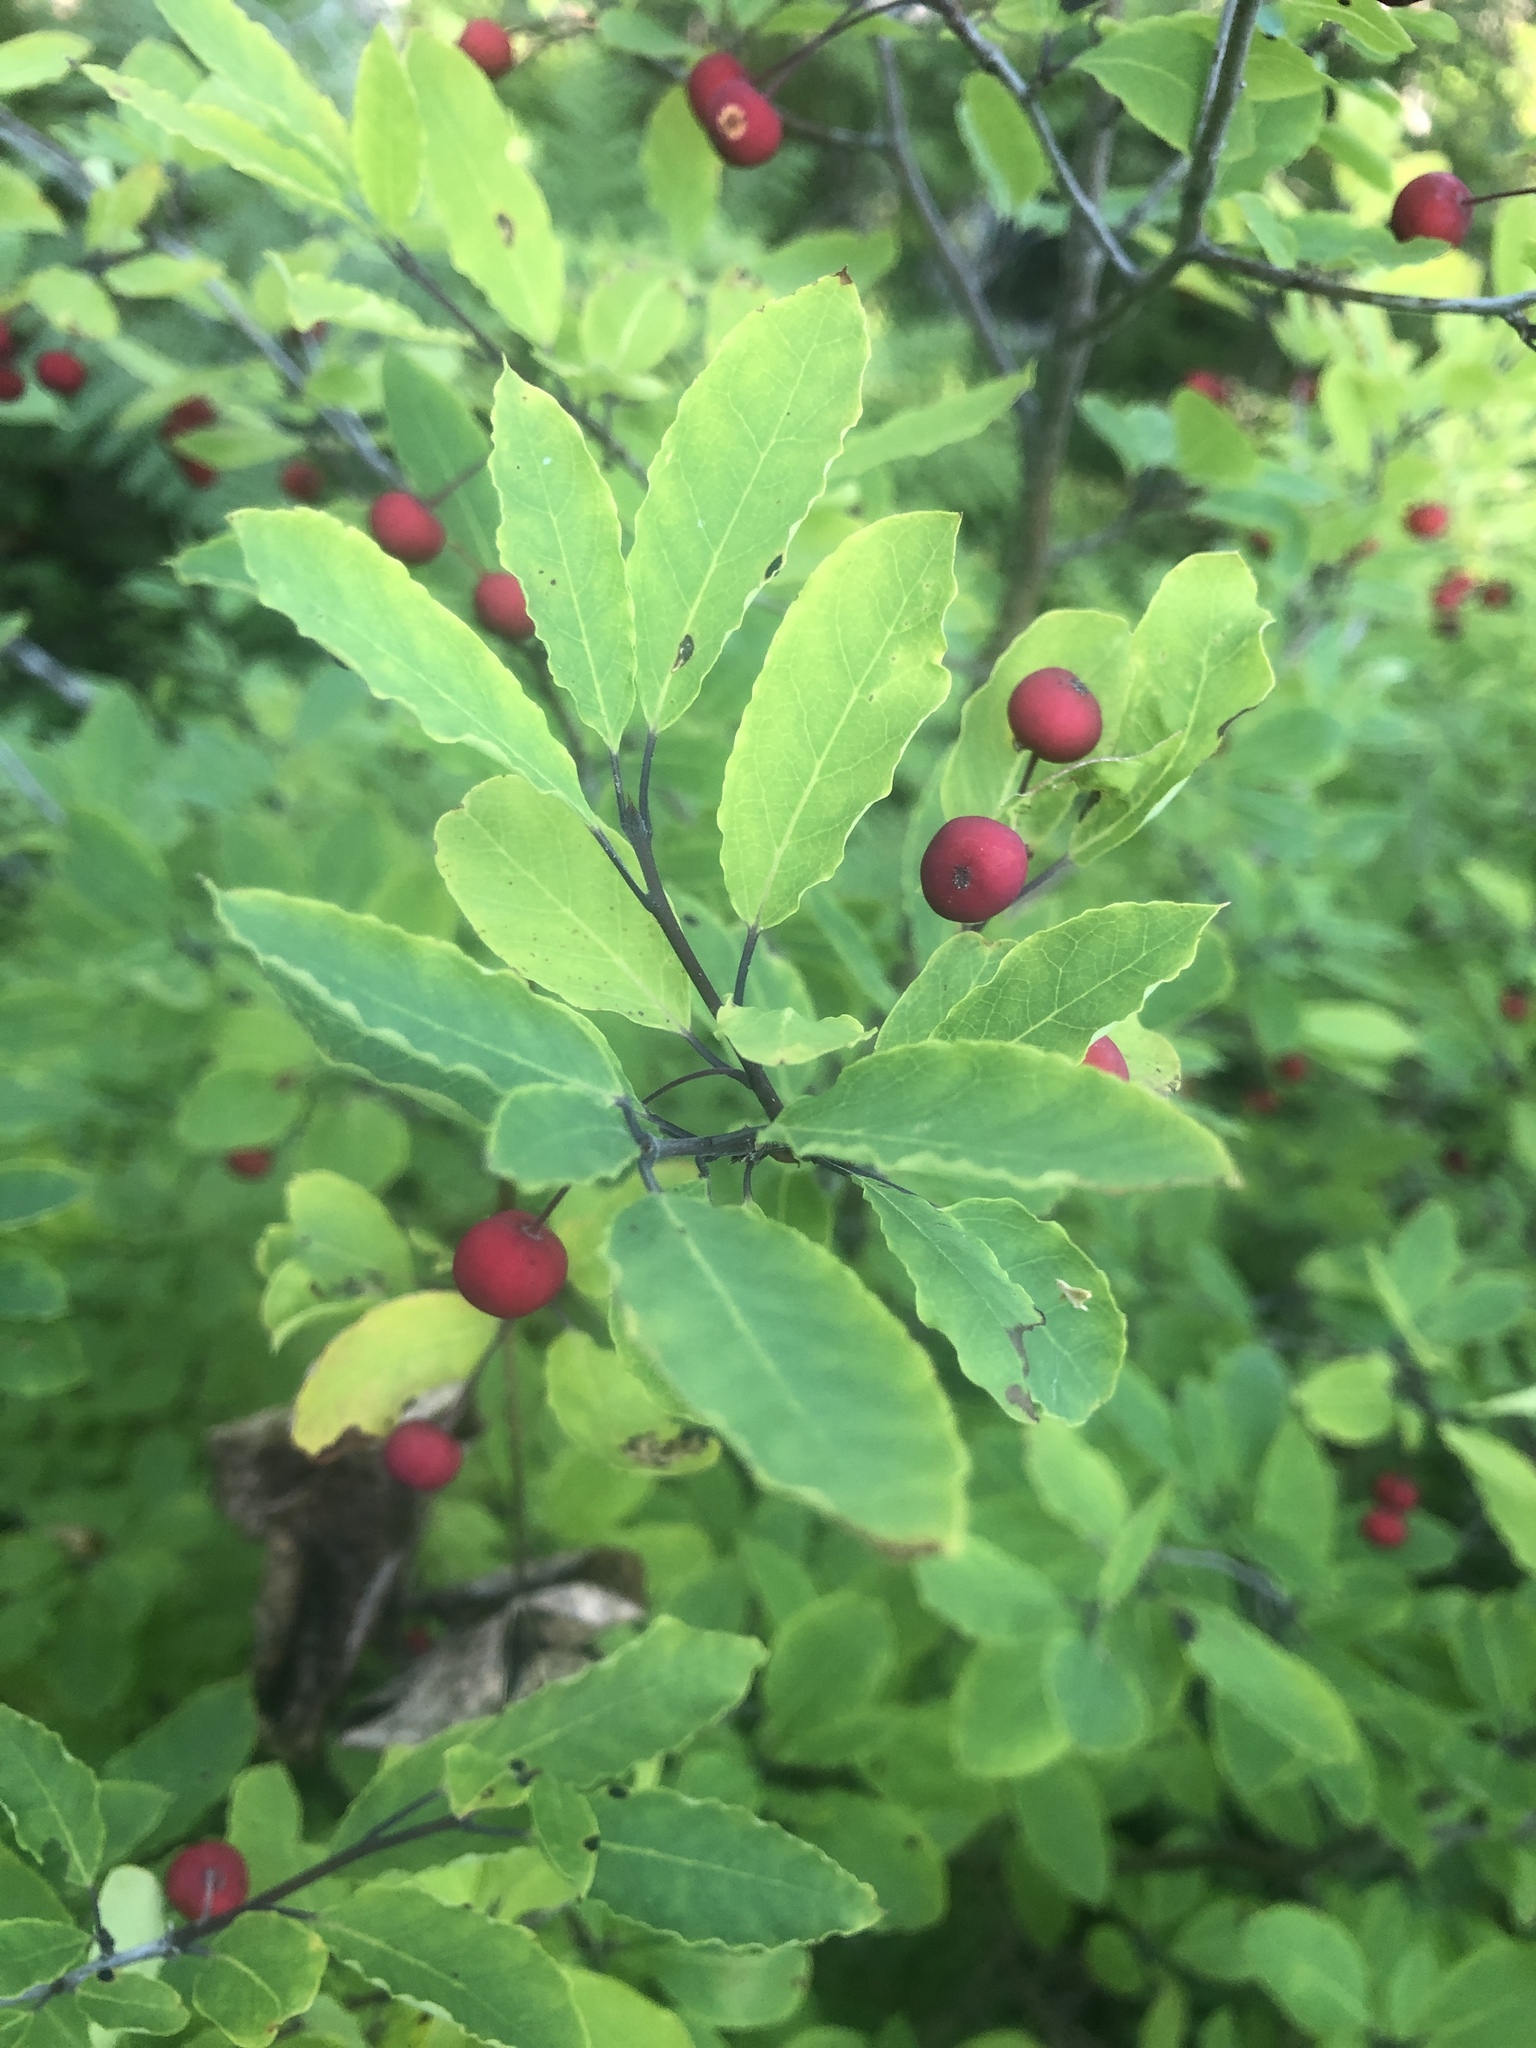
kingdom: Plantae
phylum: Tracheophyta
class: Magnoliopsida
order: Aquifoliales
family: Aquifoliaceae
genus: Ilex
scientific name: Ilex mucronata
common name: Catberry
